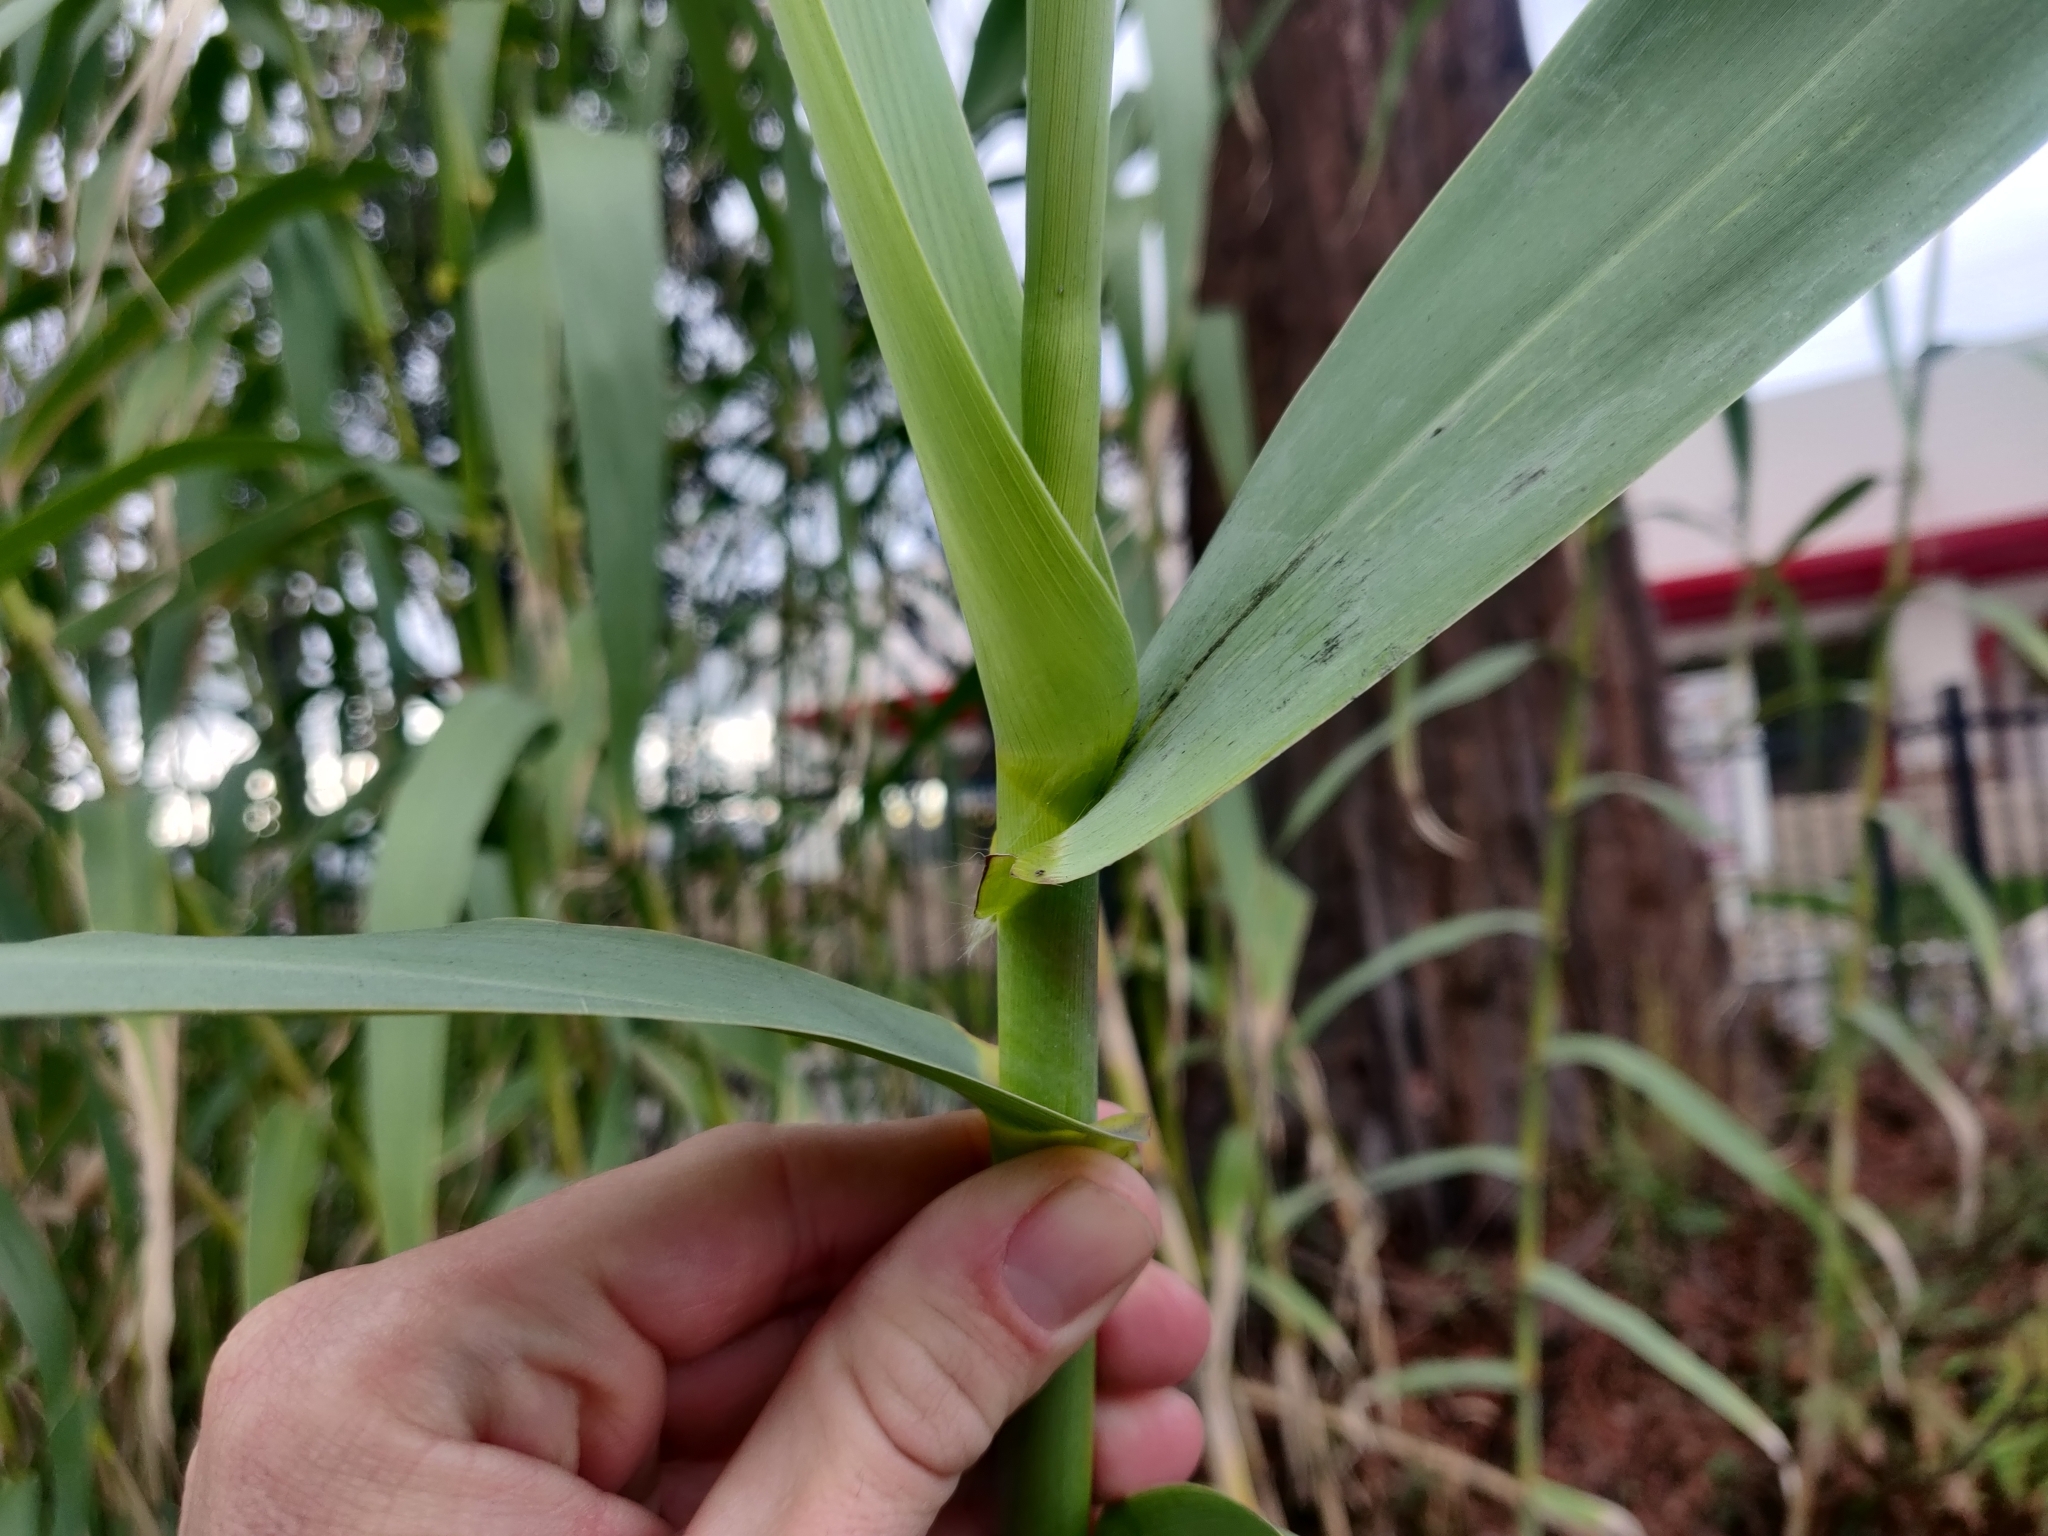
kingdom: Plantae
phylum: Tracheophyta
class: Liliopsida
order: Poales
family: Poaceae
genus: Arundo
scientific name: Arundo donax
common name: Giant reed
